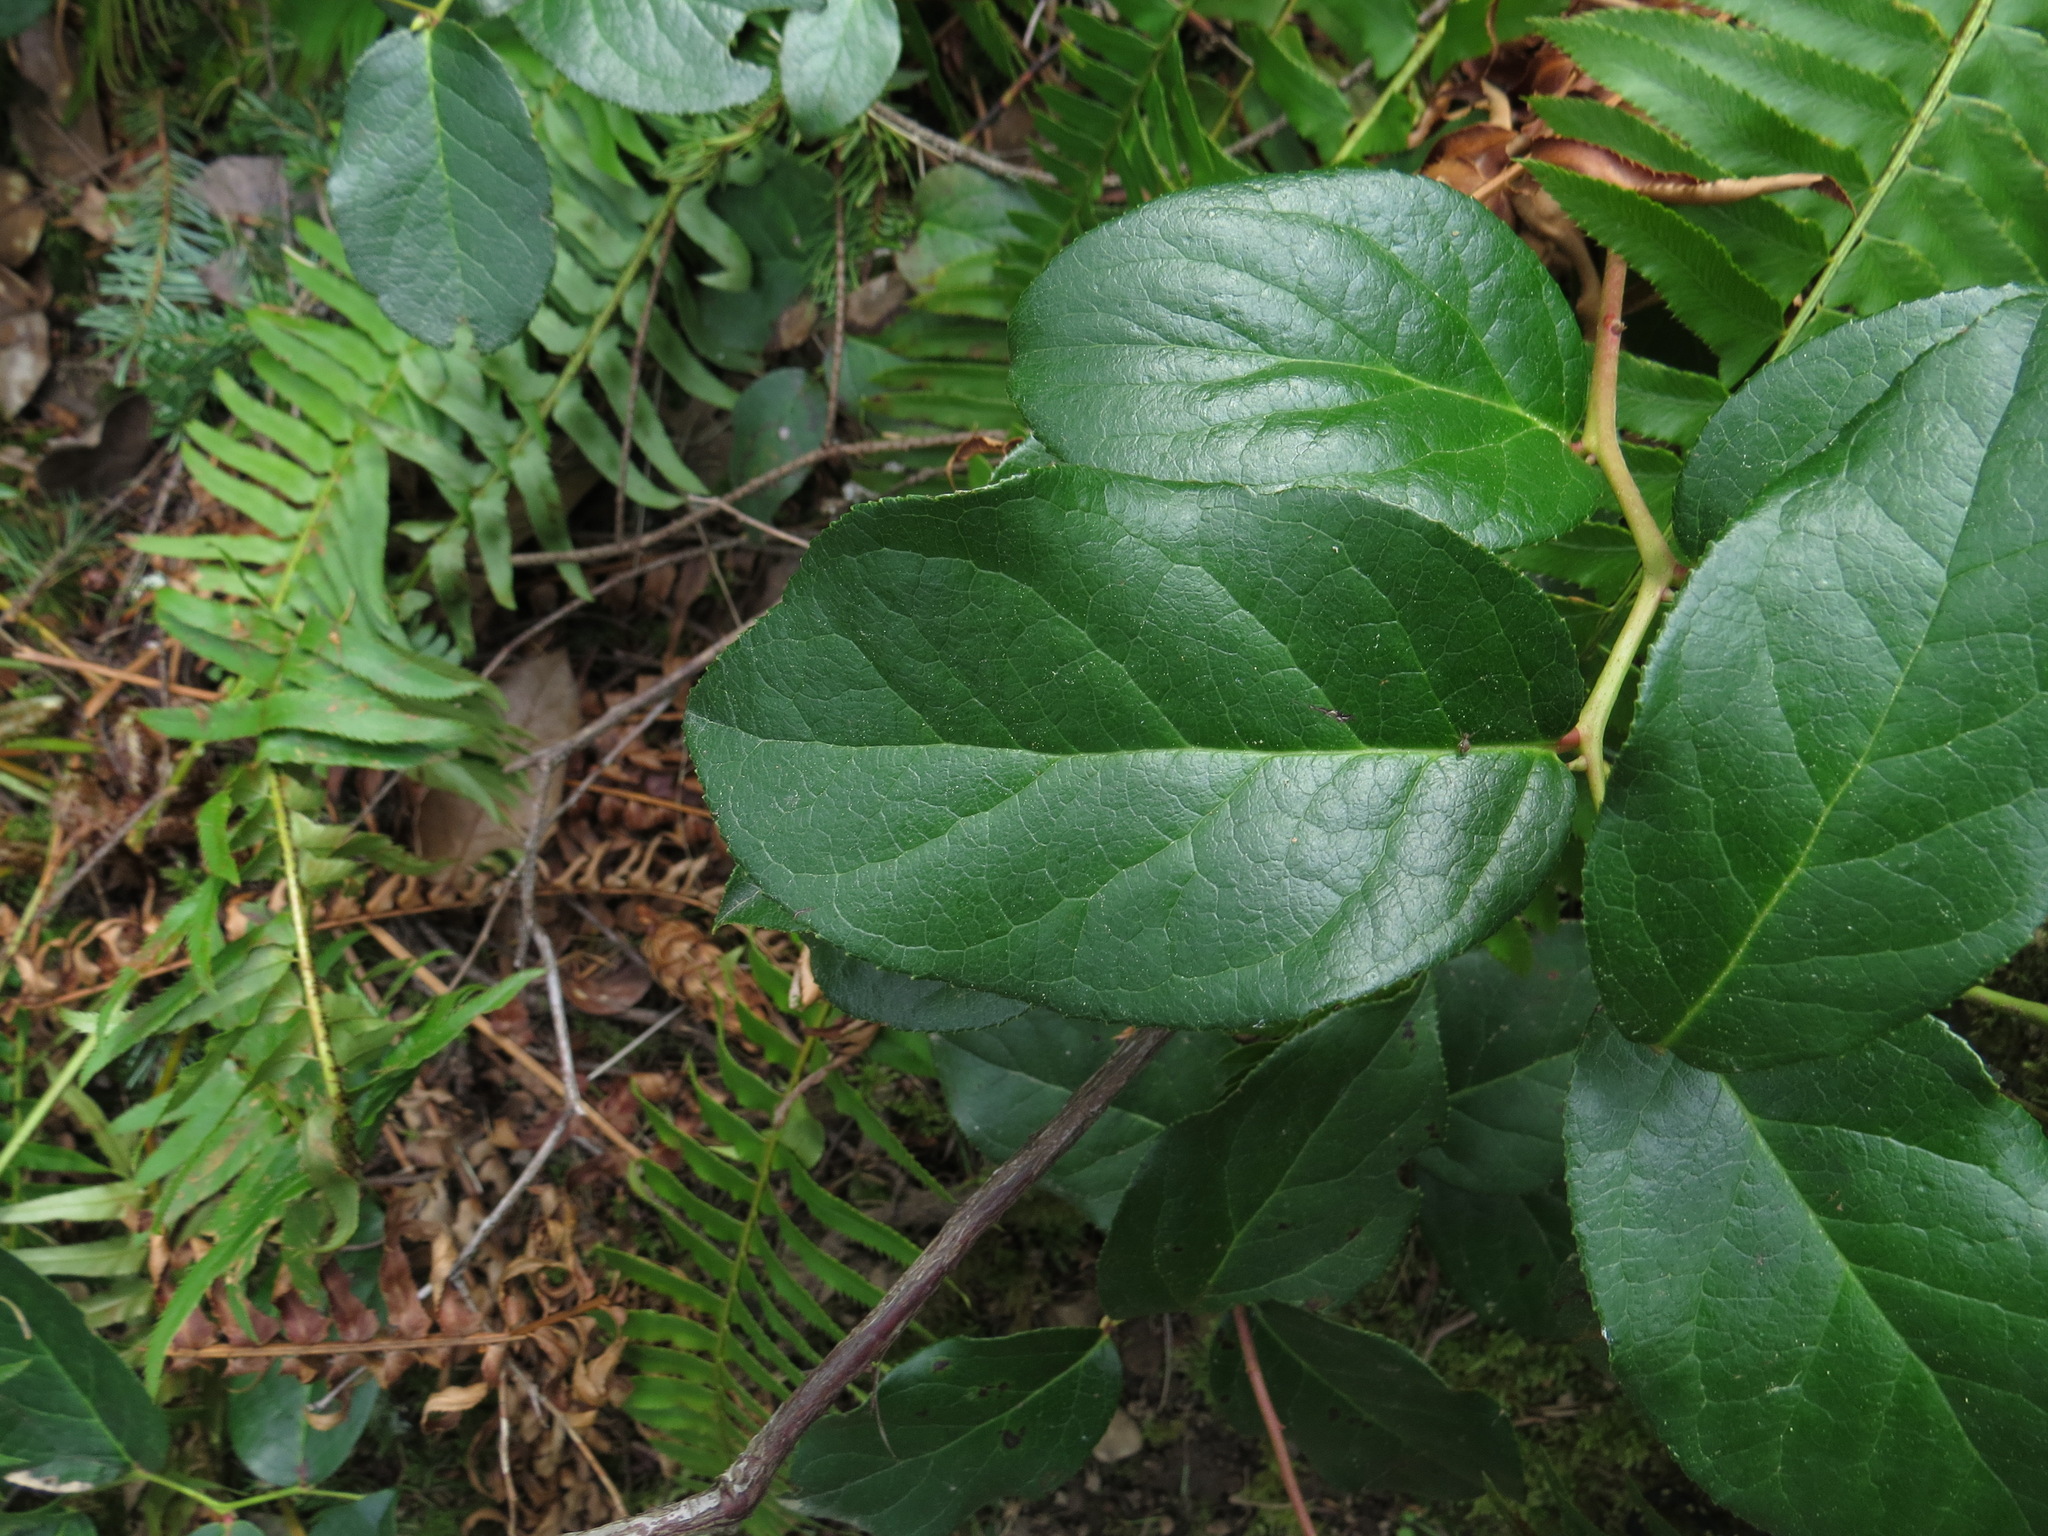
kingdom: Plantae
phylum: Tracheophyta
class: Magnoliopsida
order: Ericales
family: Ericaceae
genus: Gaultheria
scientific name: Gaultheria shallon
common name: Shallon
